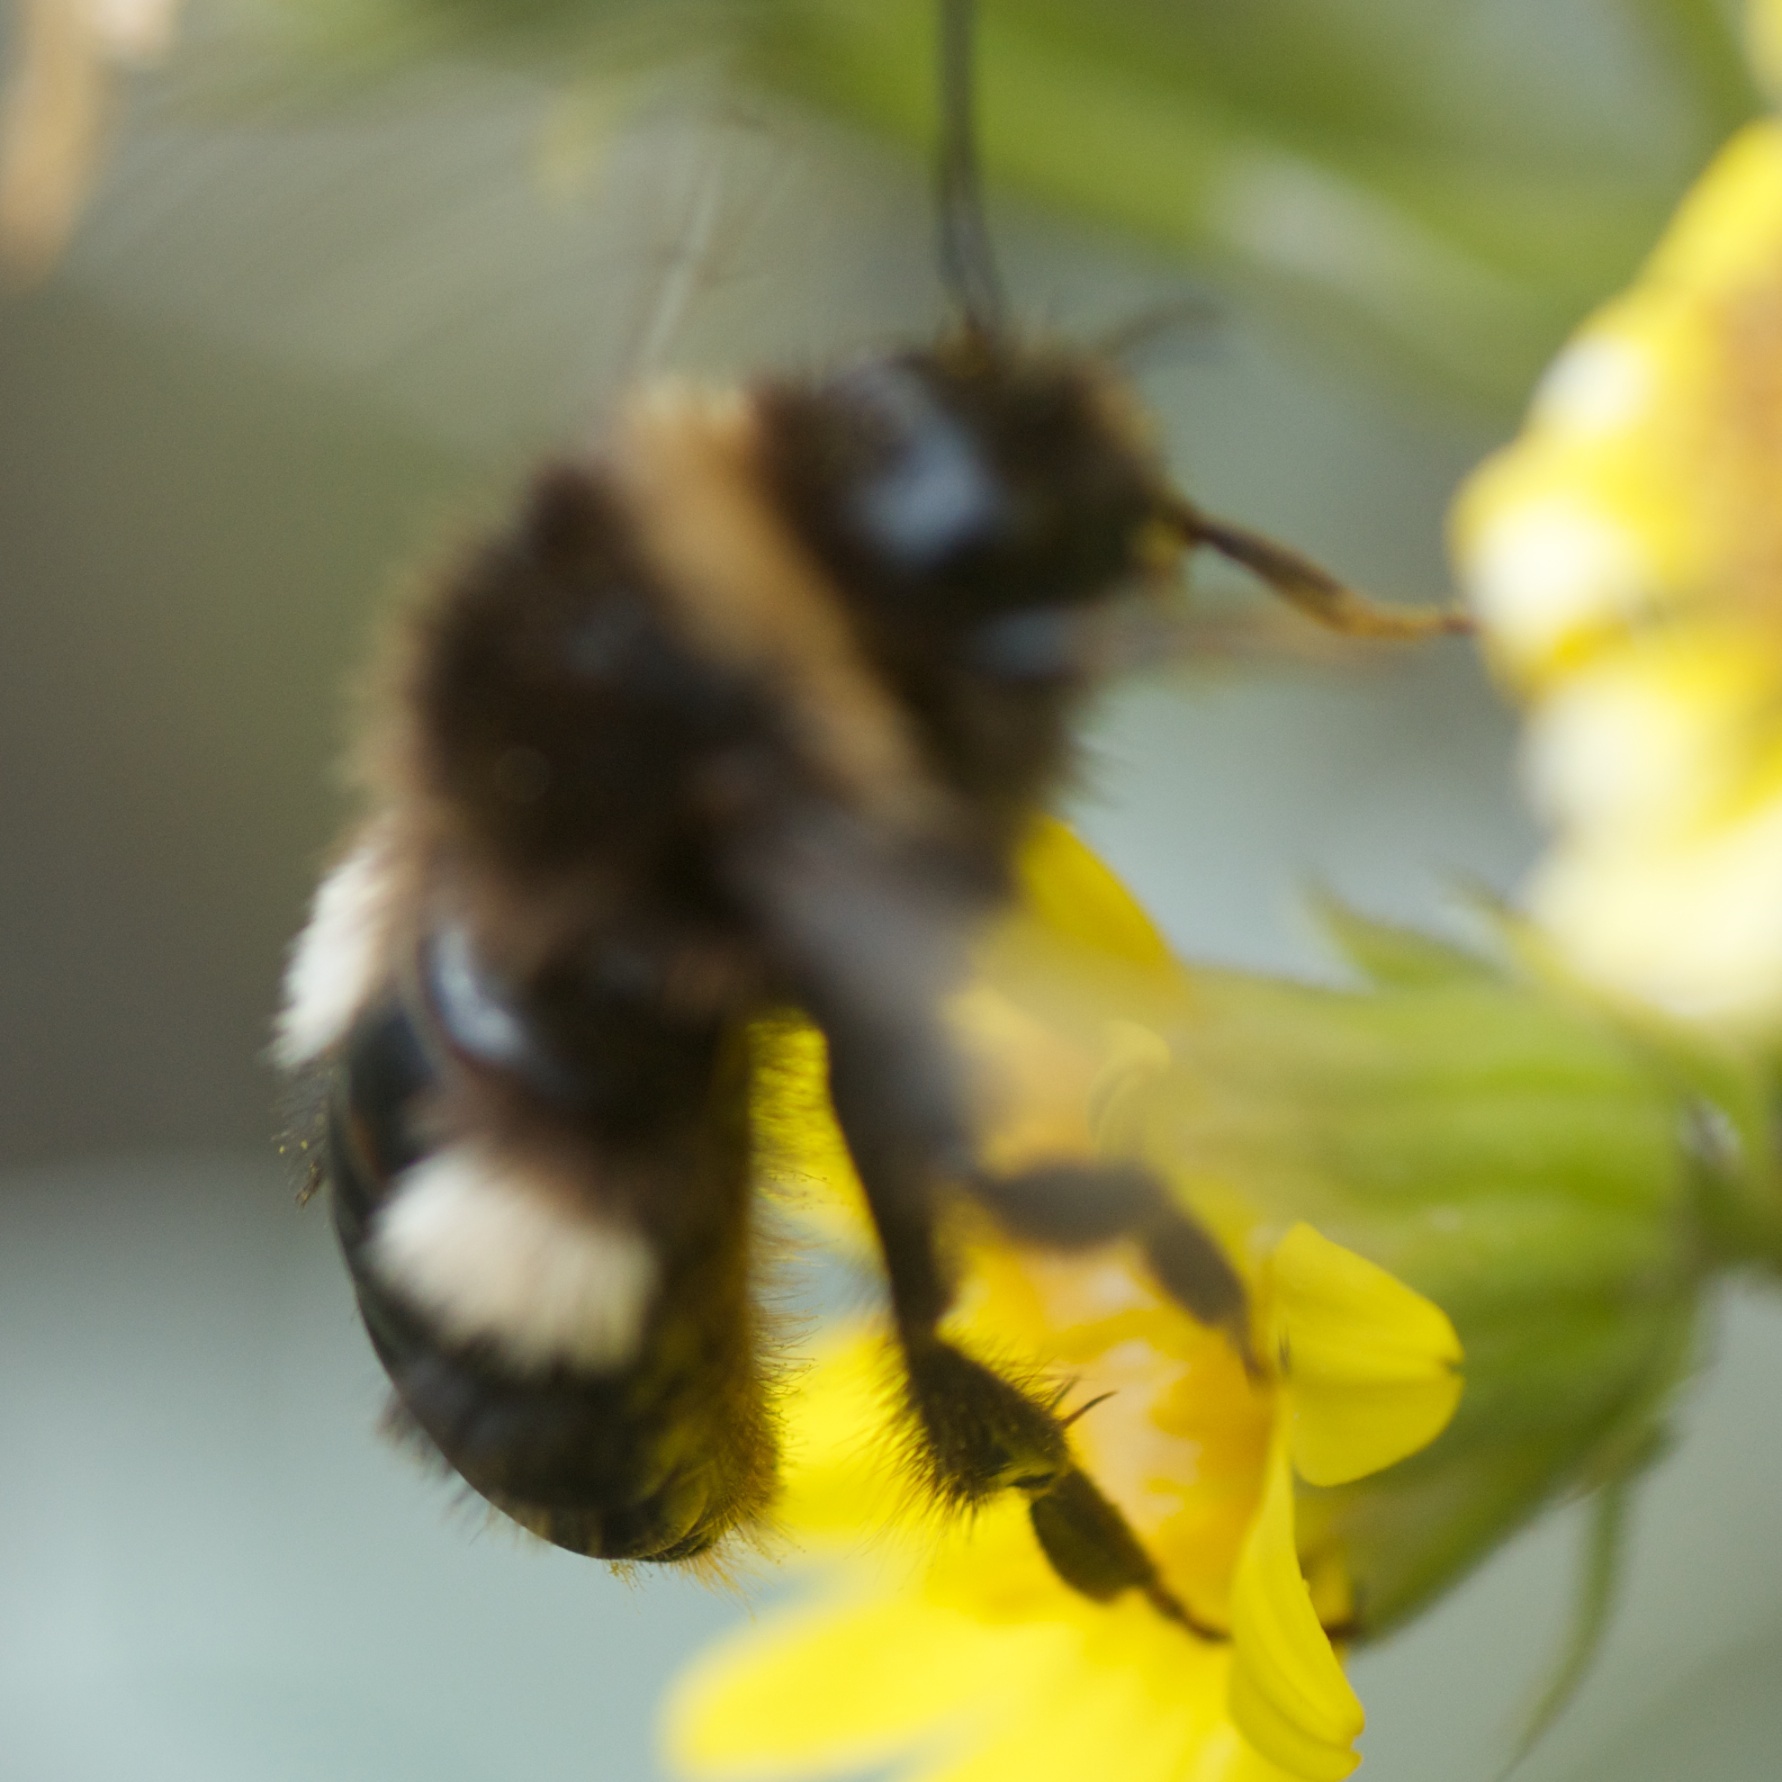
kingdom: Animalia
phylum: Arthropoda
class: Insecta
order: Hymenoptera
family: Apidae
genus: Bombus
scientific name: Bombus terrestris
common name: Buff-tailed bumblebee
